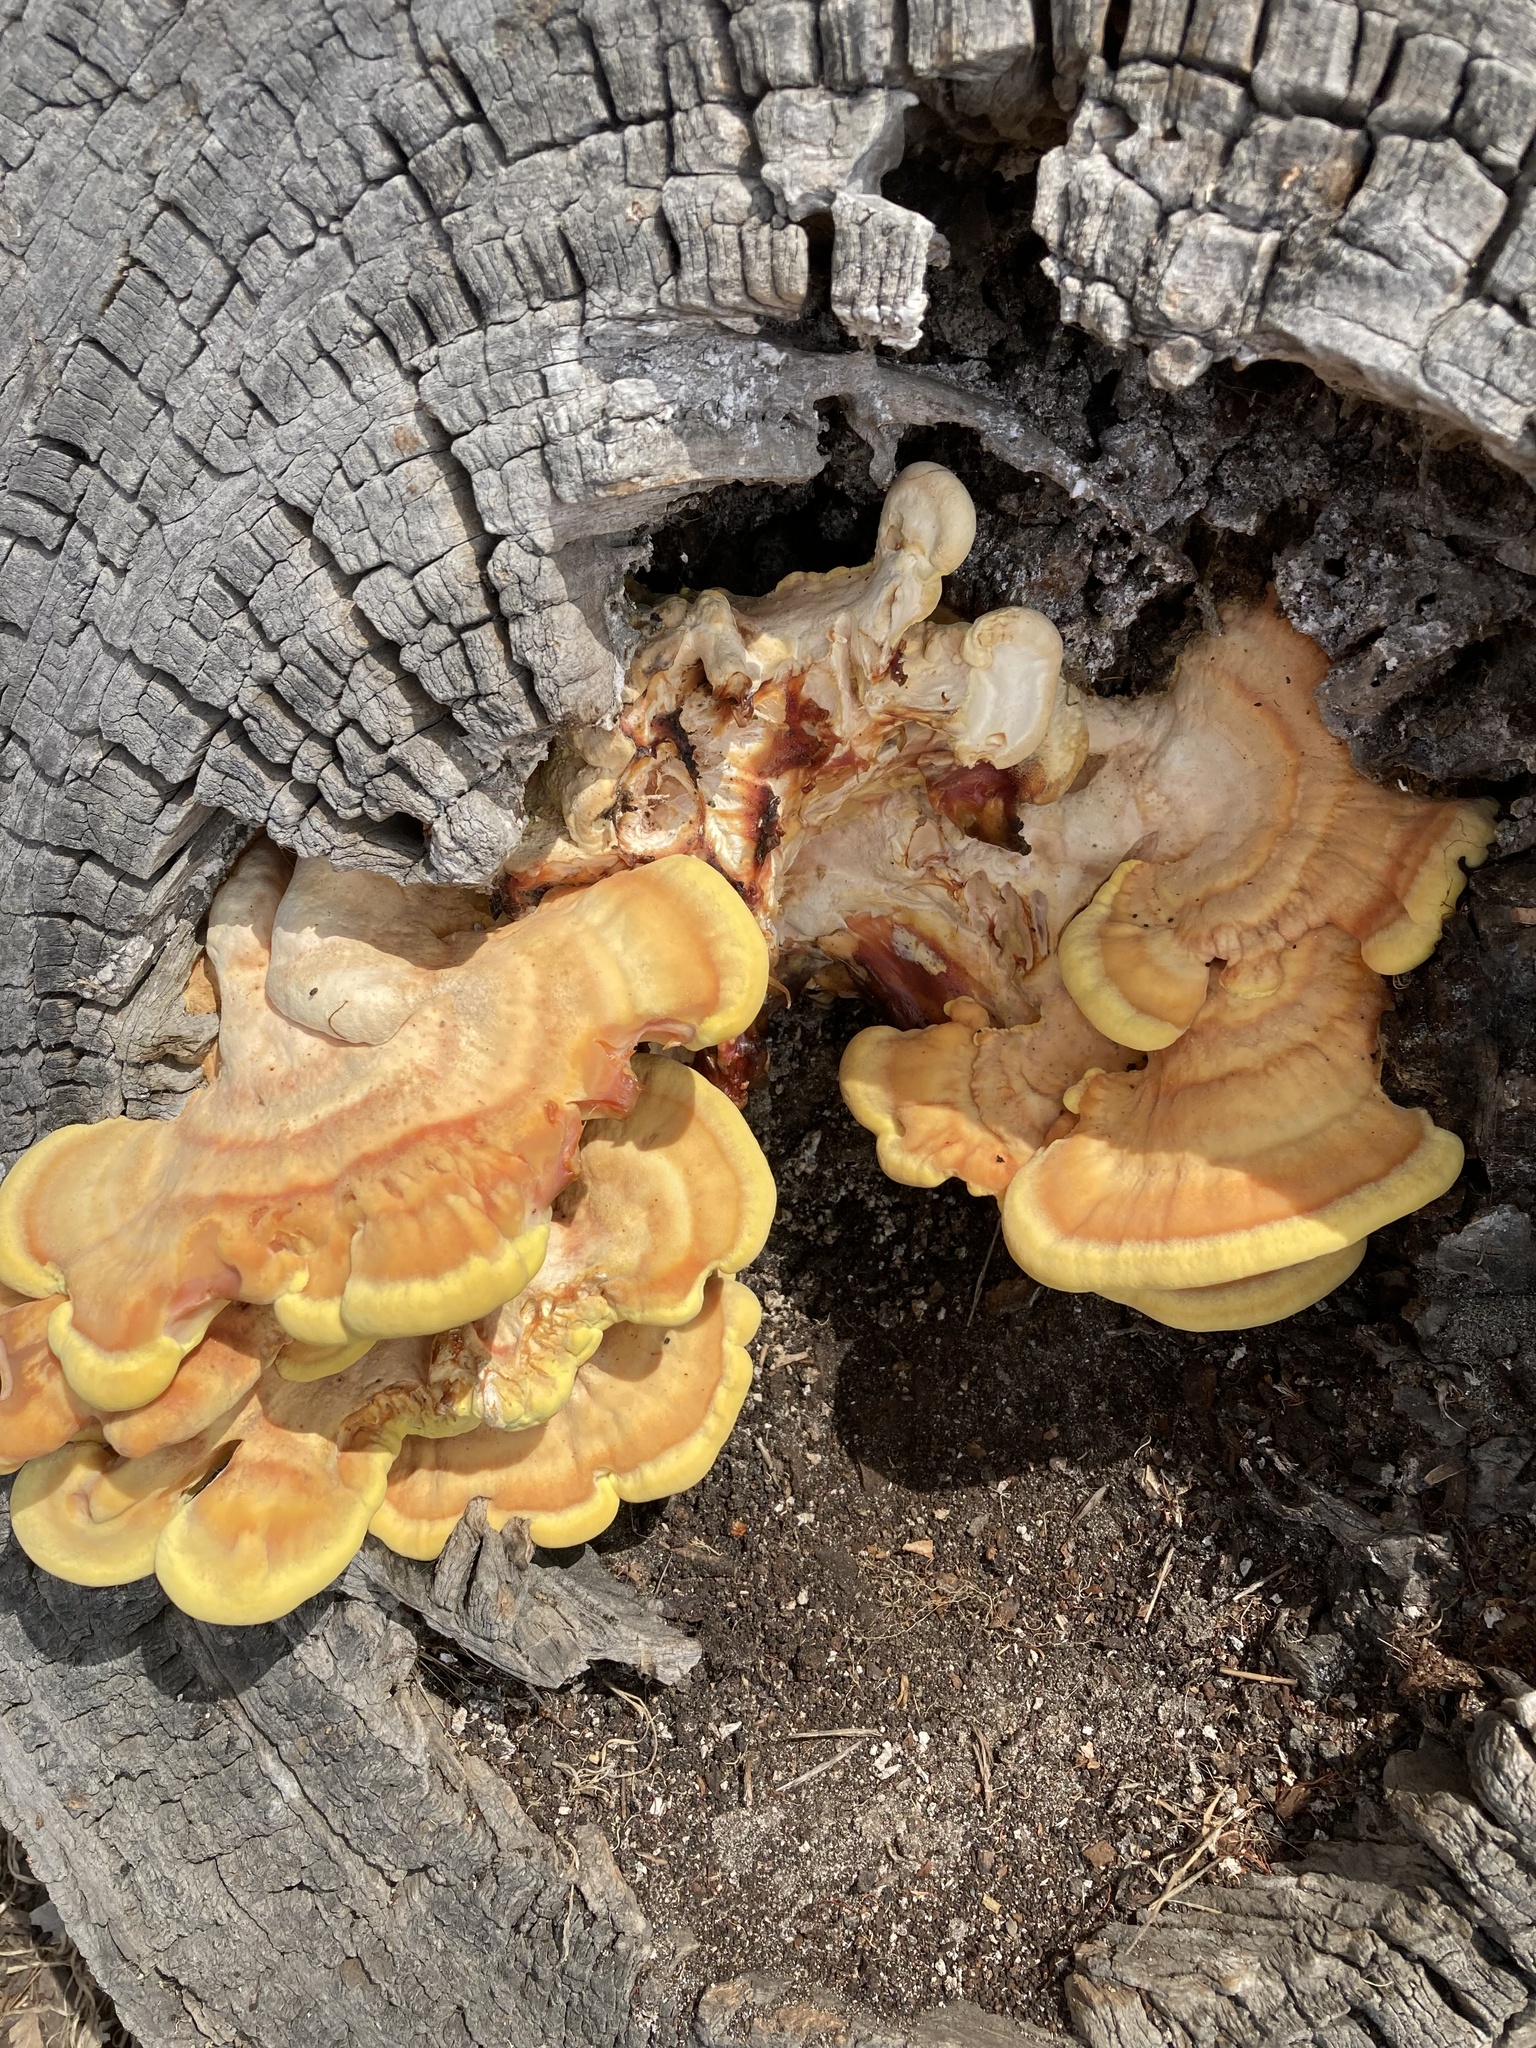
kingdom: Fungi
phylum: Basidiomycota
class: Agaricomycetes
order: Polyporales
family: Laetiporaceae
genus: Laetiporus
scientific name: Laetiporus gilbertsonii
